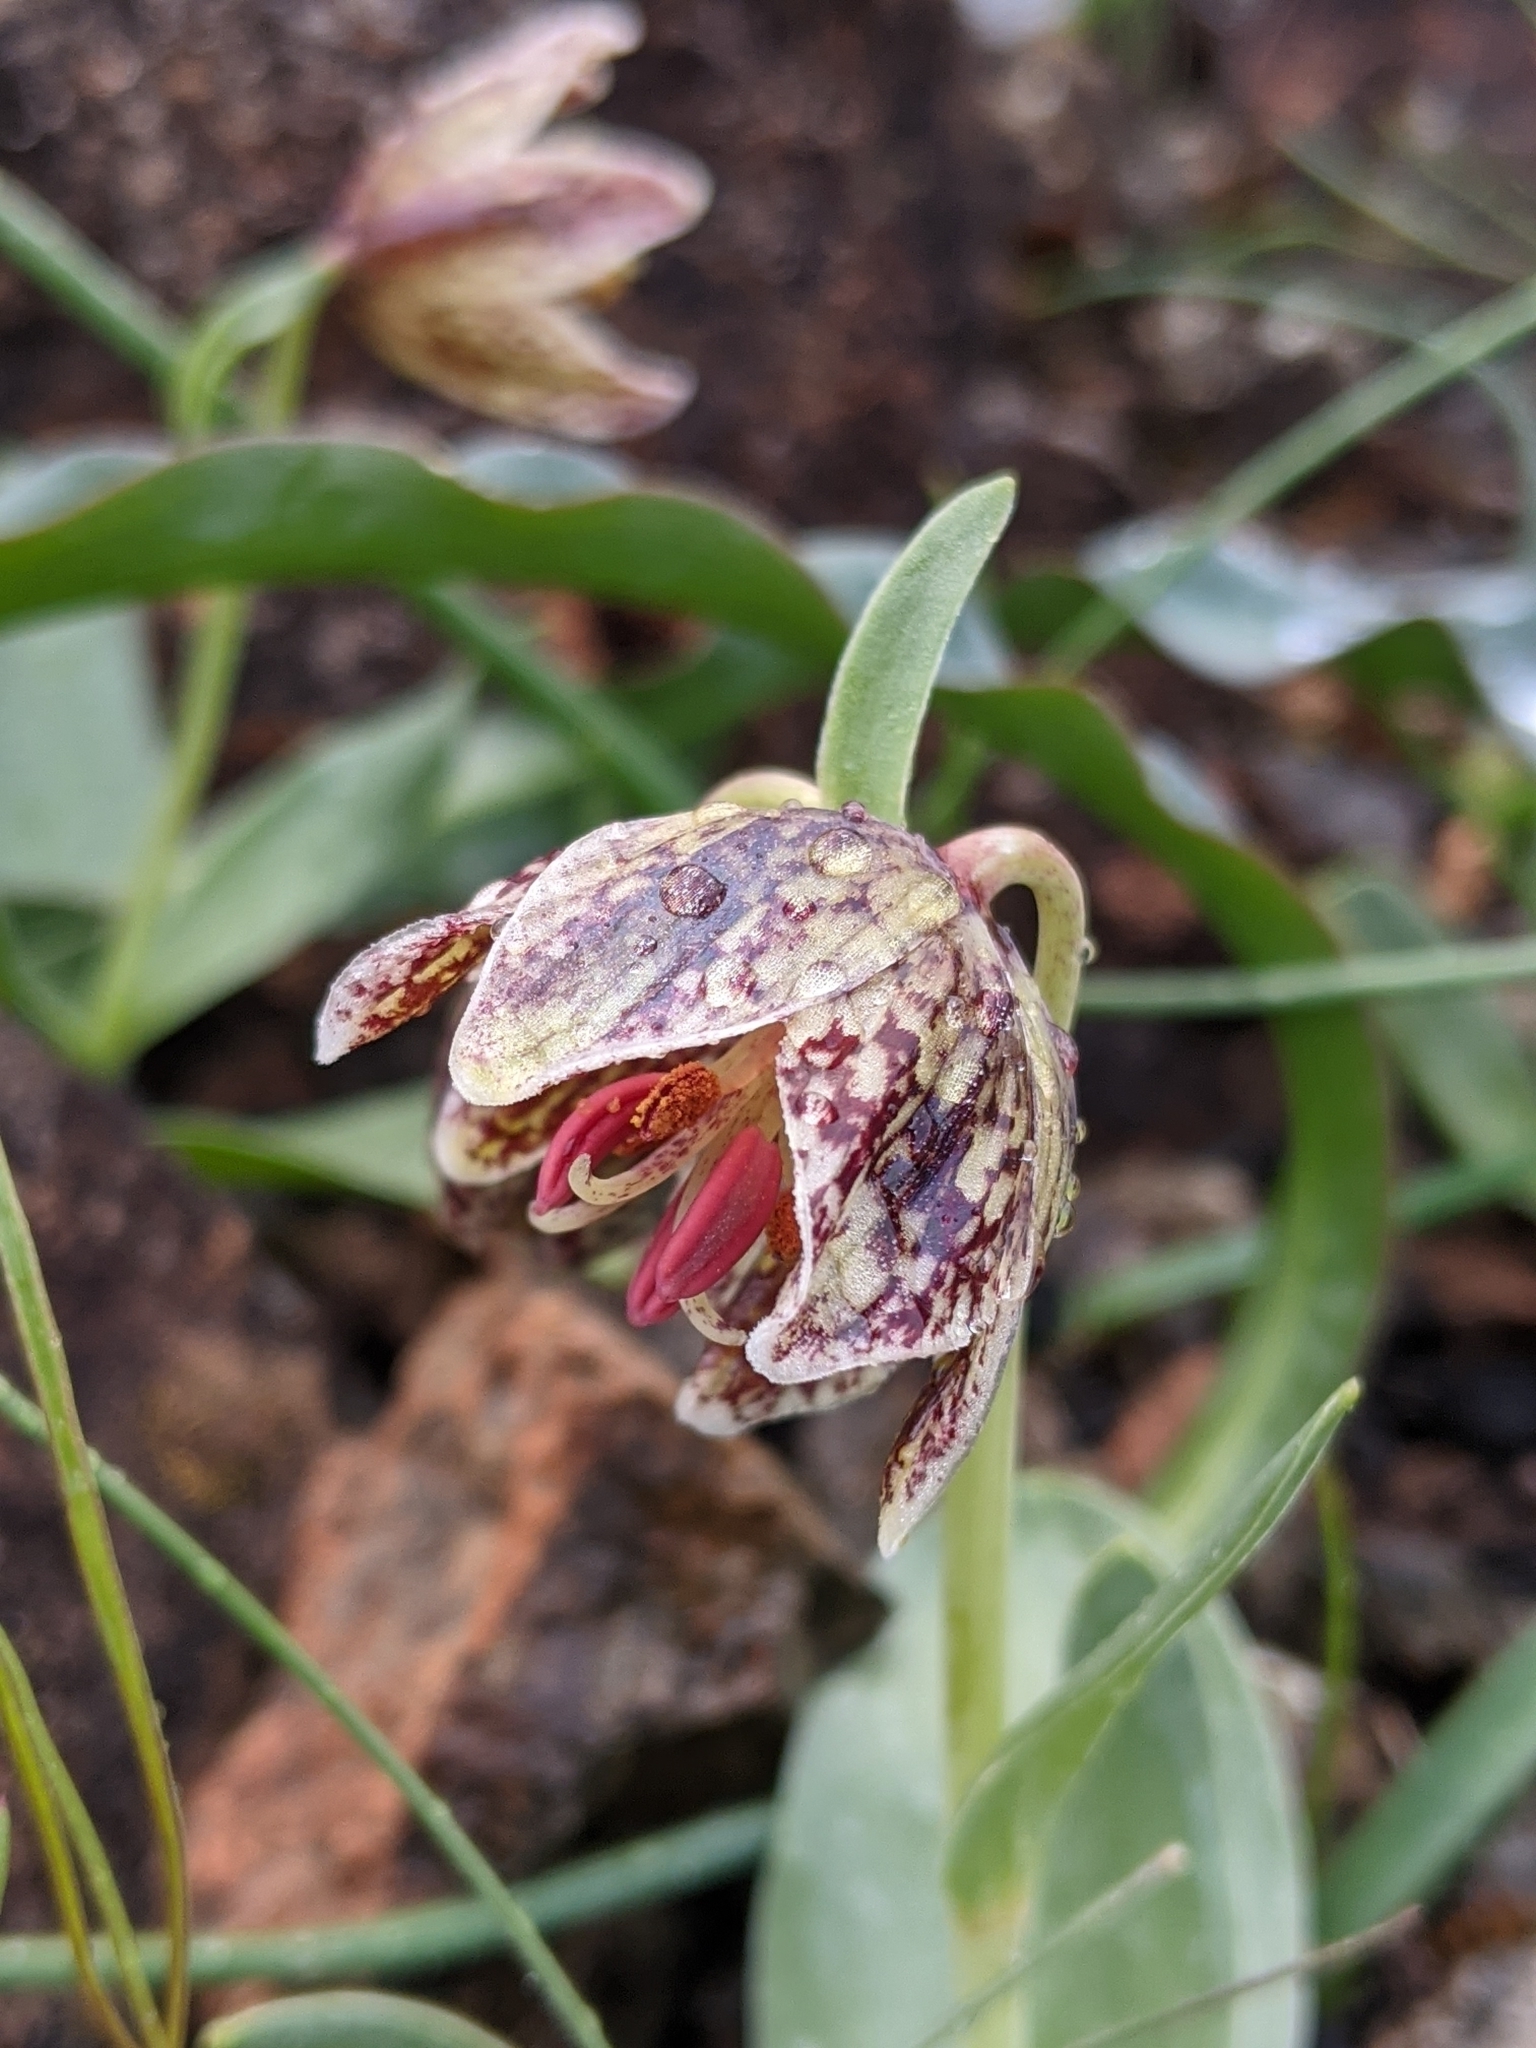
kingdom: Plantae
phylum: Tracheophyta
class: Liliopsida
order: Liliales
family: Liliaceae
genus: Fritillaria
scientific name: Fritillaria purdyi
